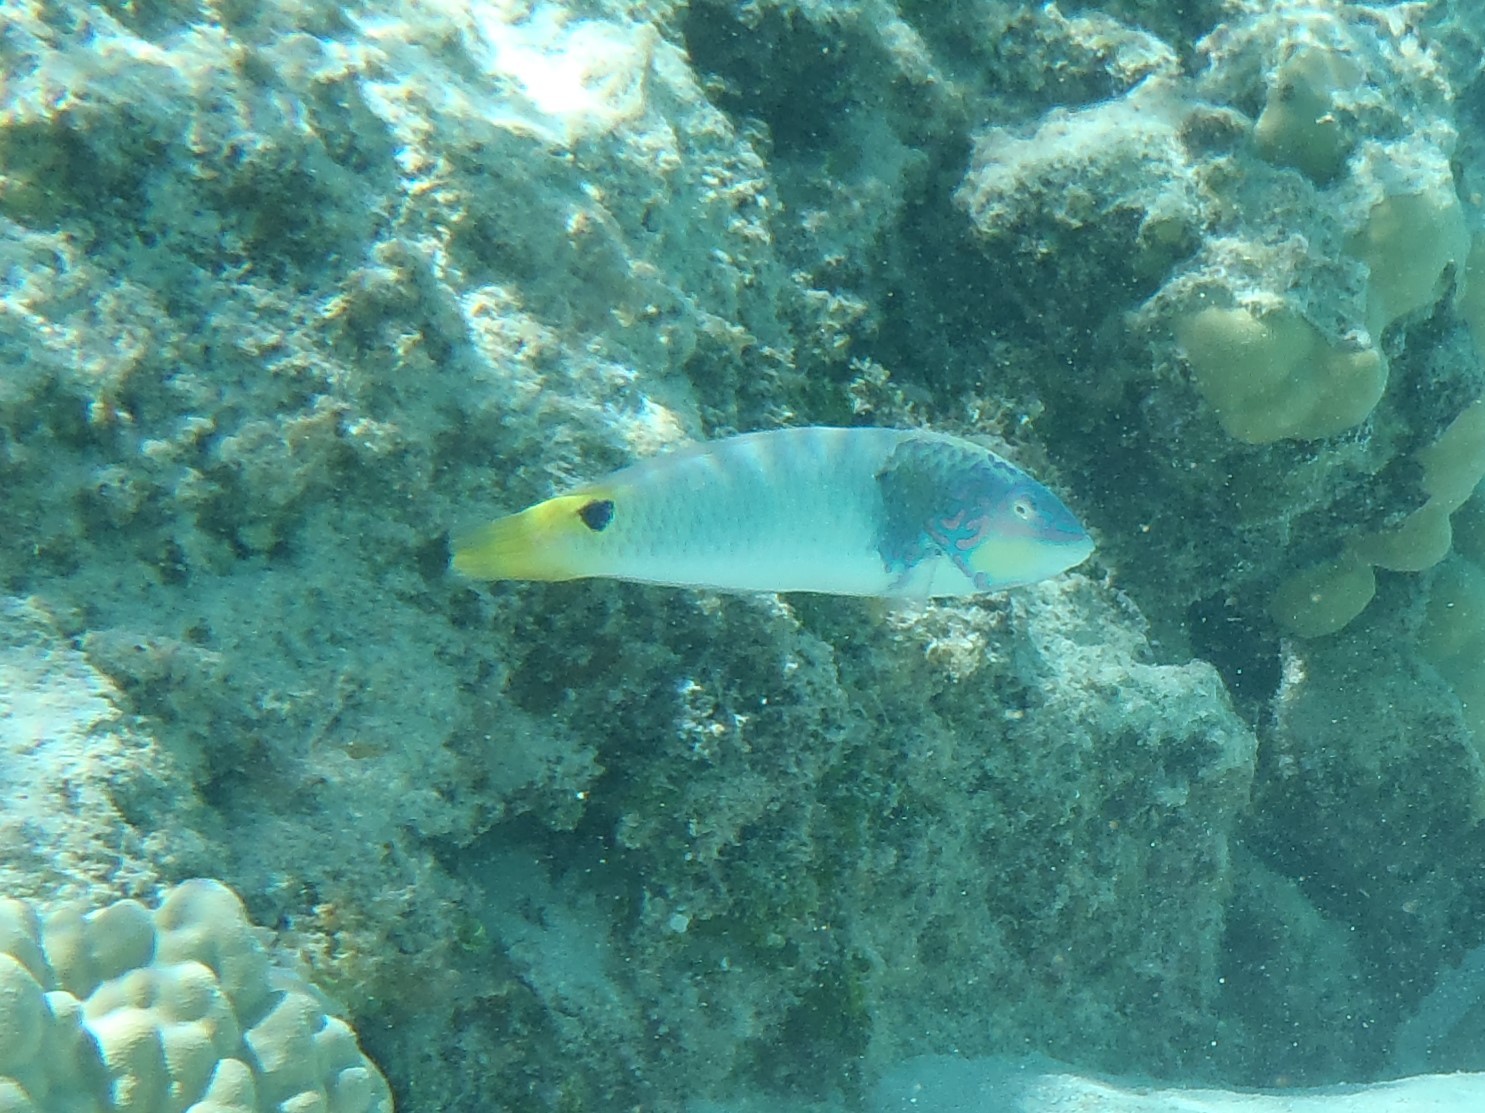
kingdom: Animalia
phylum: Chordata
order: Perciformes
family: Labridae
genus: Halichoeres
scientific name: Halichoeres trimaculatus
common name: Three-spot wrasse
